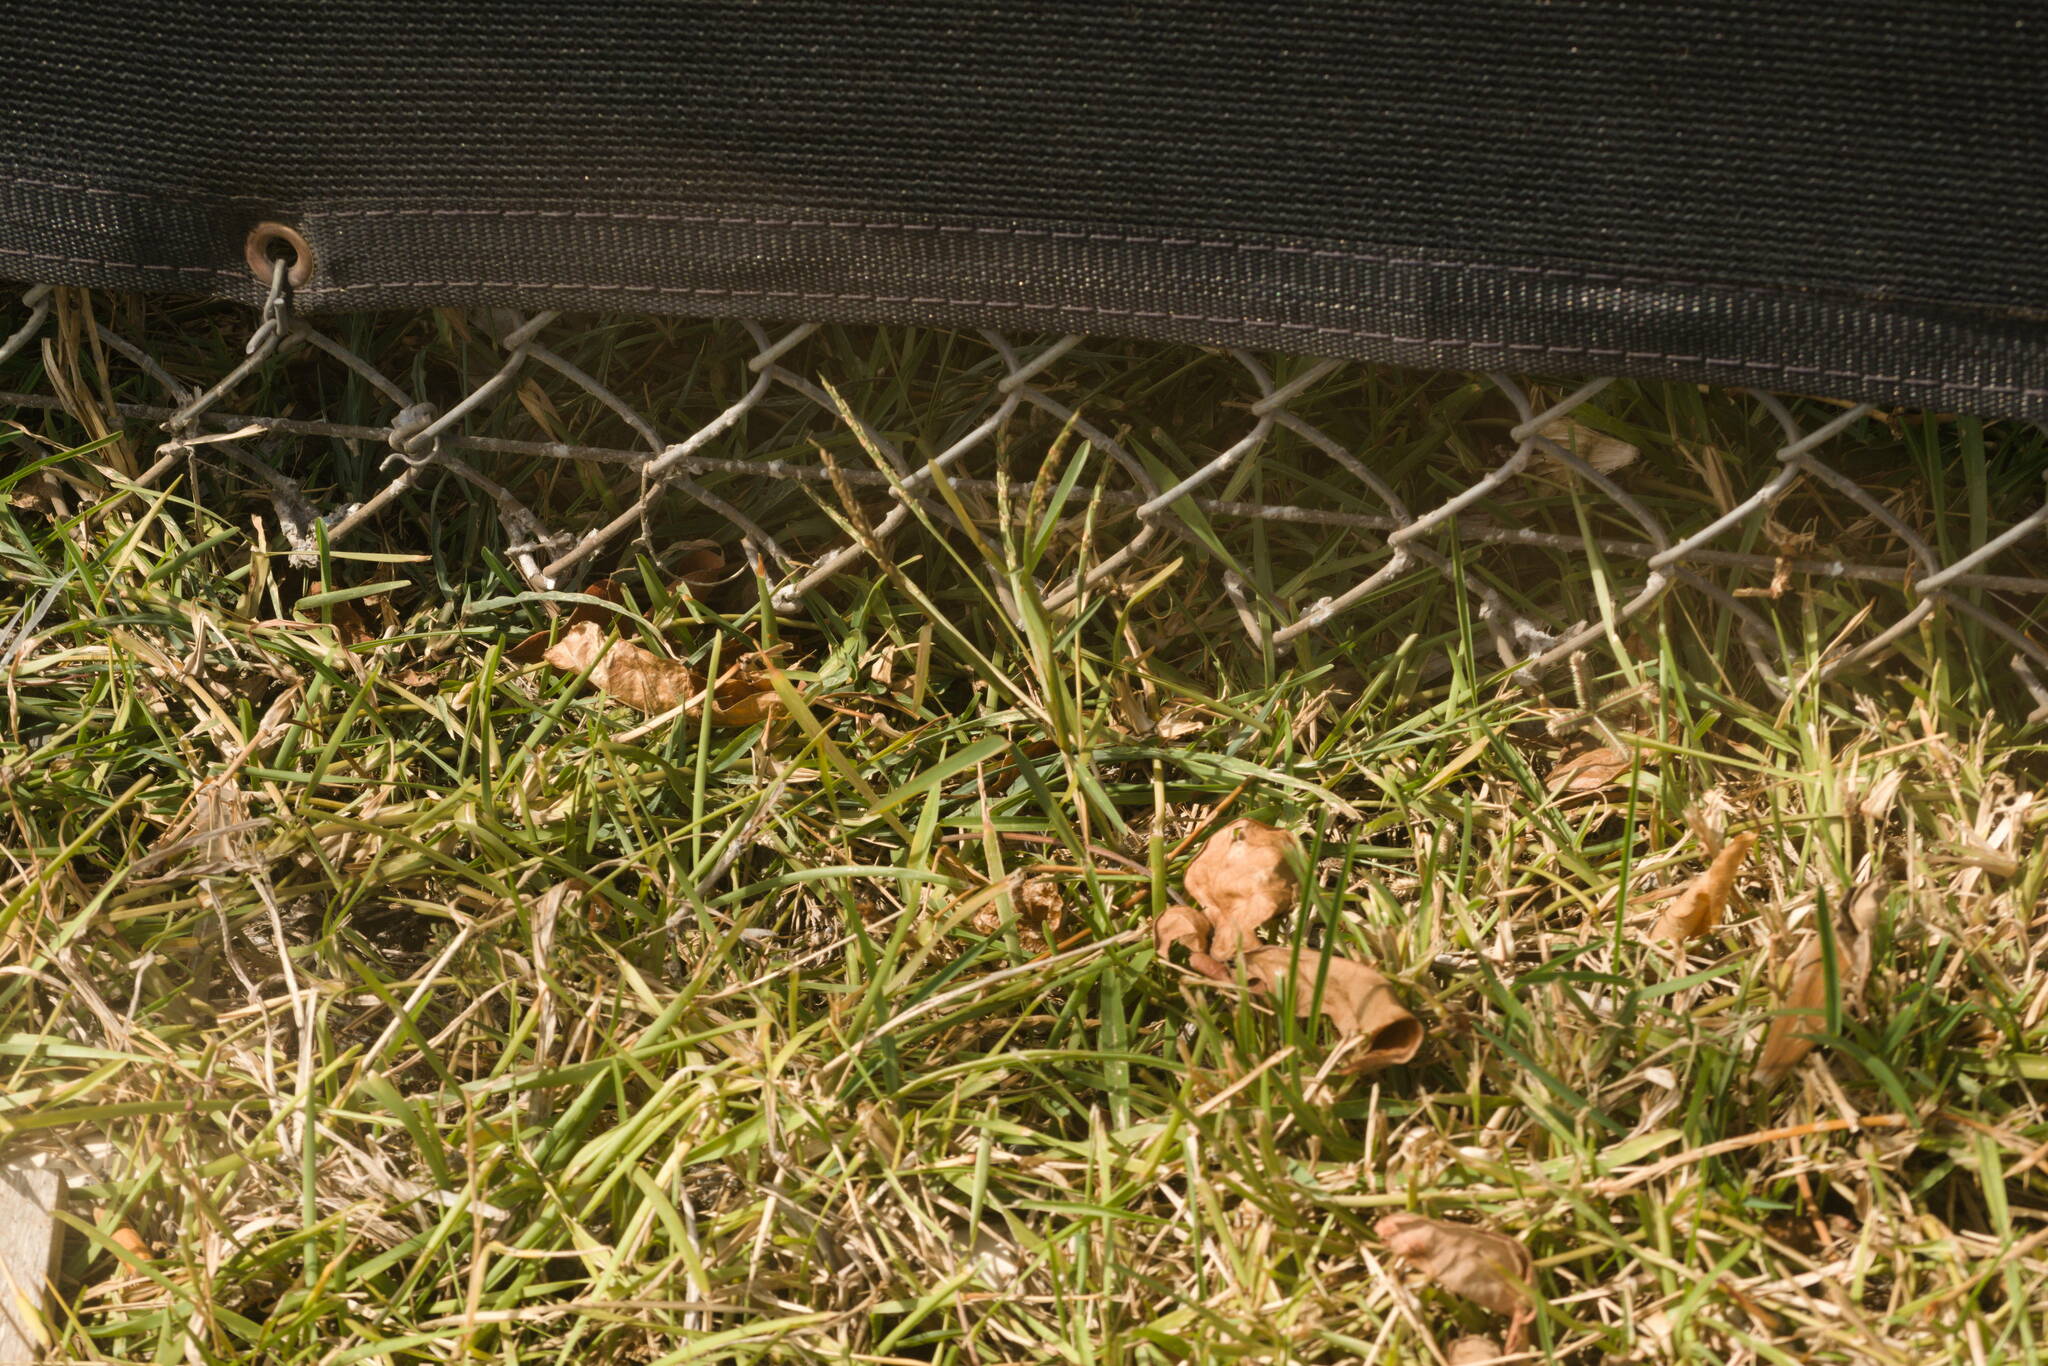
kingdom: Plantae
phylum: Tracheophyta
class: Liliopsida
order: Poales
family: Poaceae
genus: Stenotaphrum
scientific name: Stenotaphrum secundatum
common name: St. augustine grass
